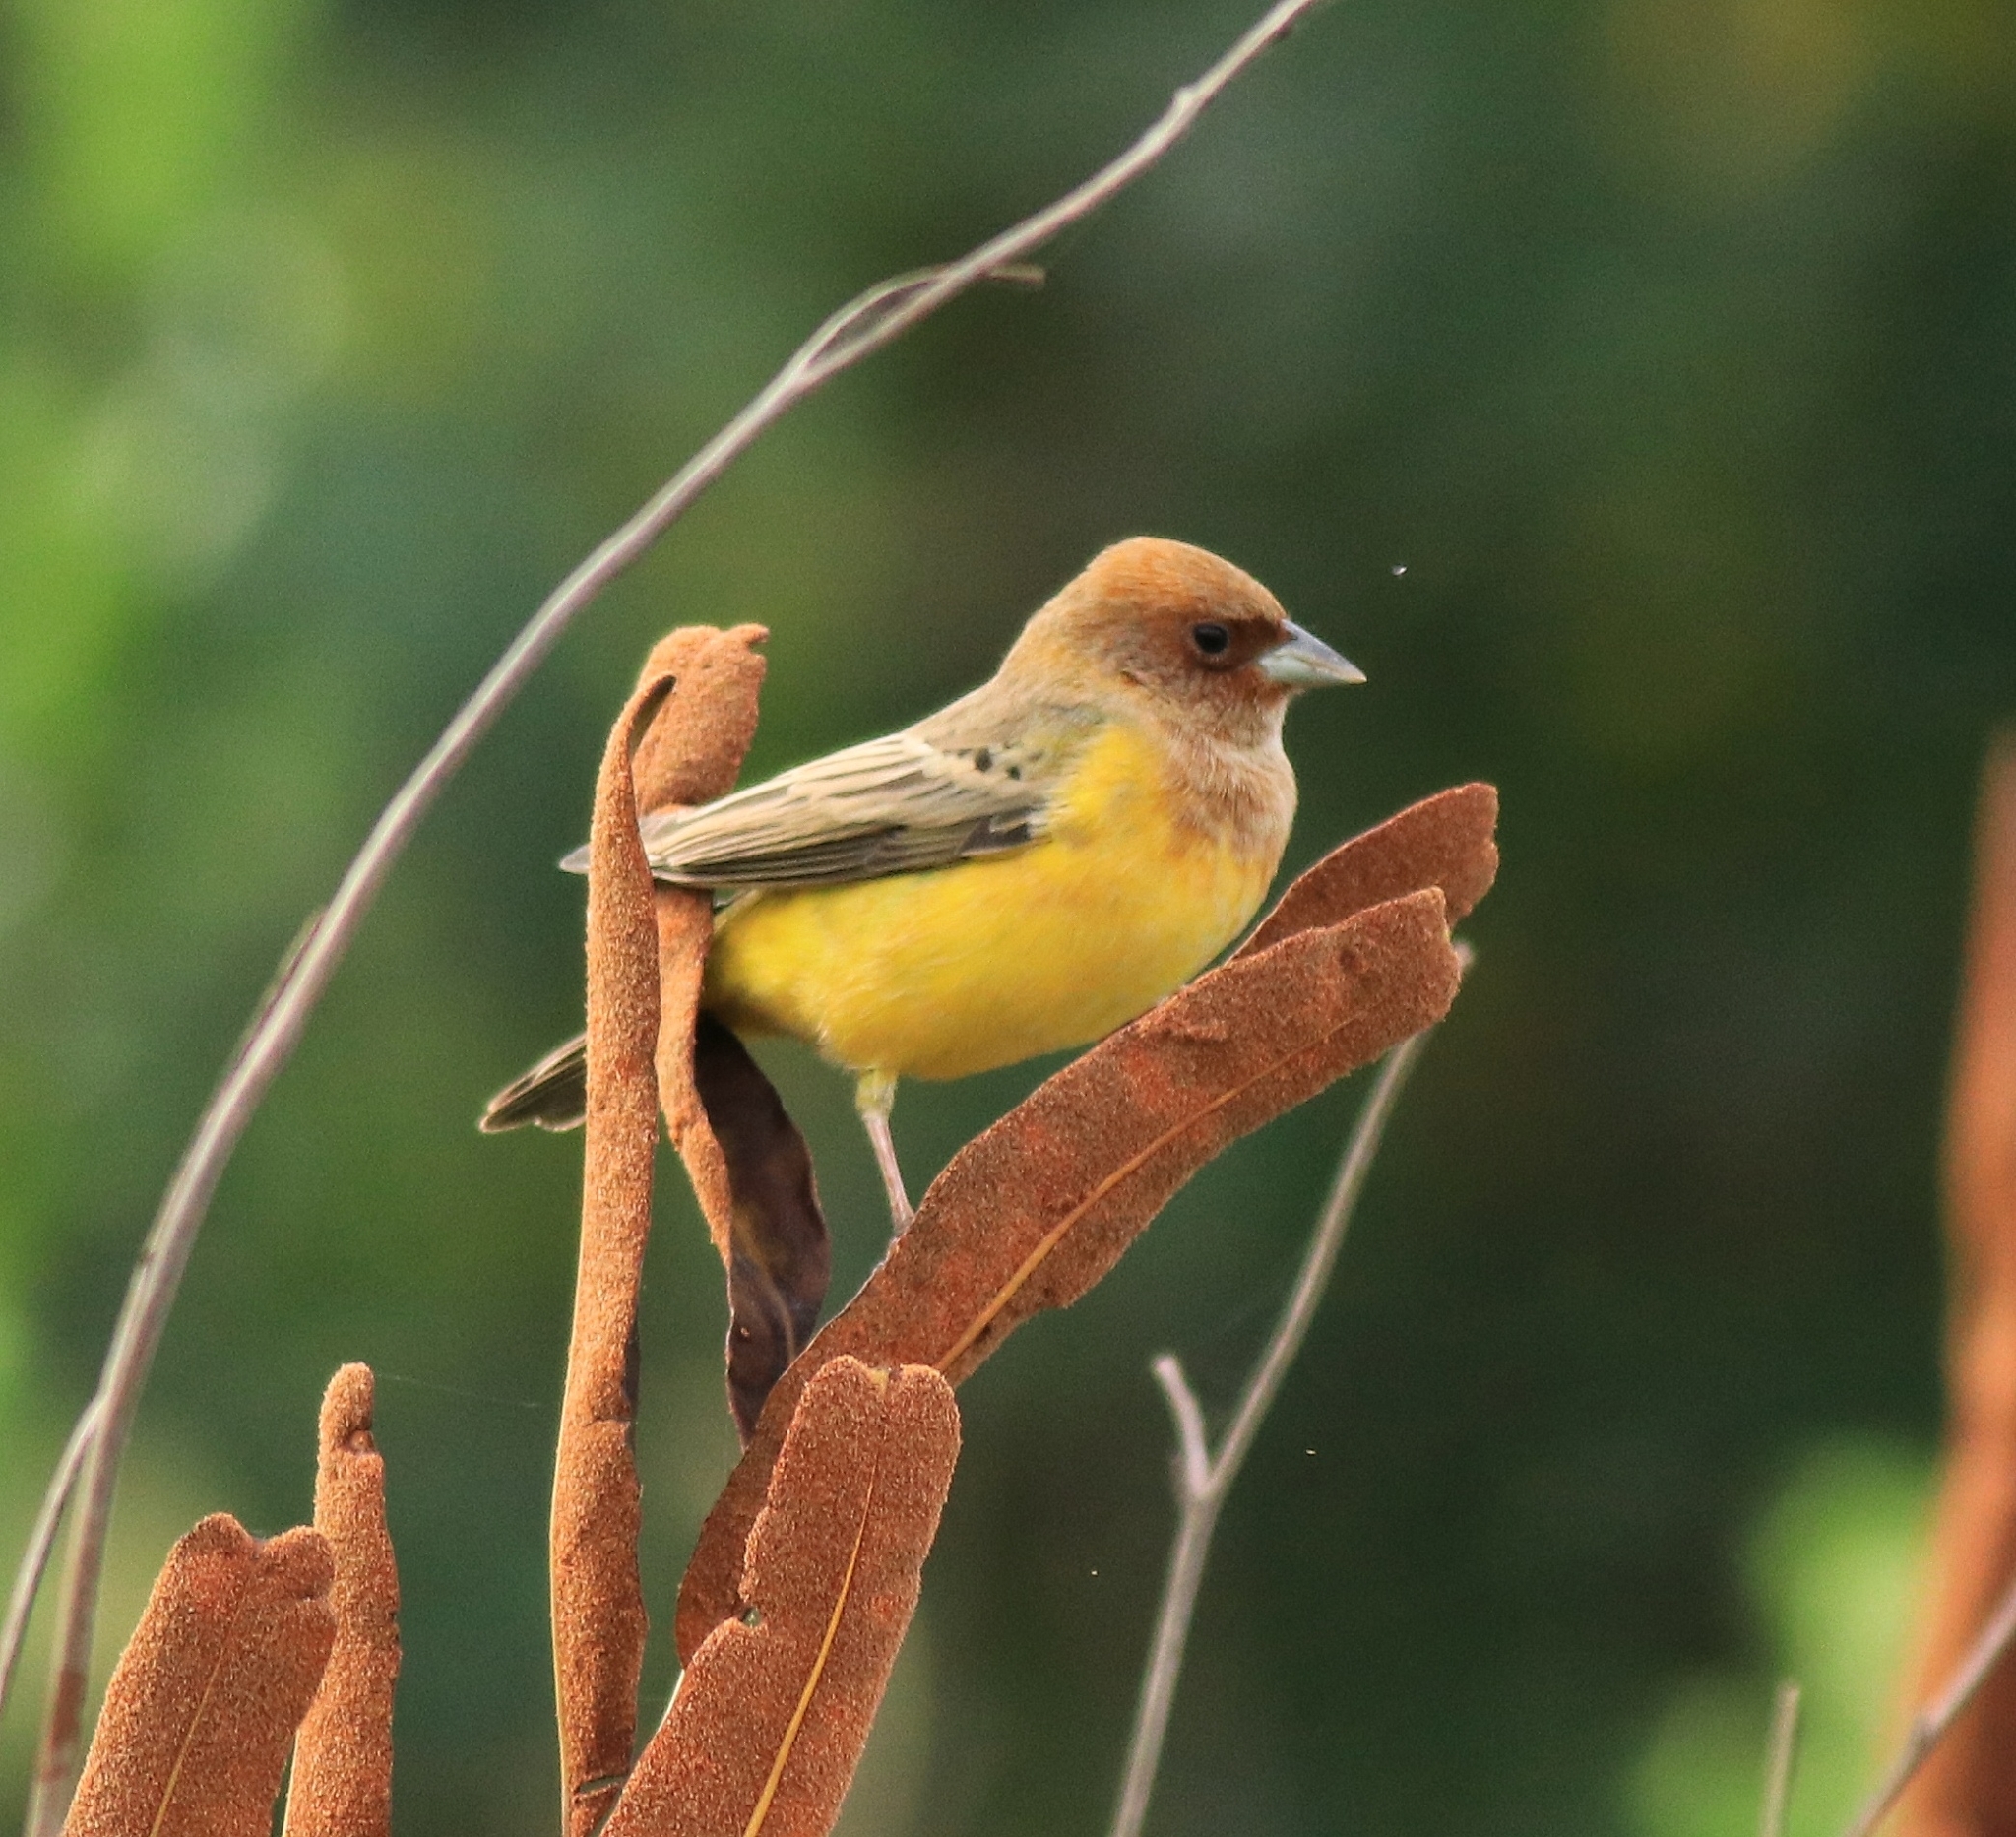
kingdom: Animalia
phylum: Chordata
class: Aves
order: Passeriformes
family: Emberizidae
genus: Emberiza
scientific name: Emberiza bruniceps
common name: Red-headed bunting
